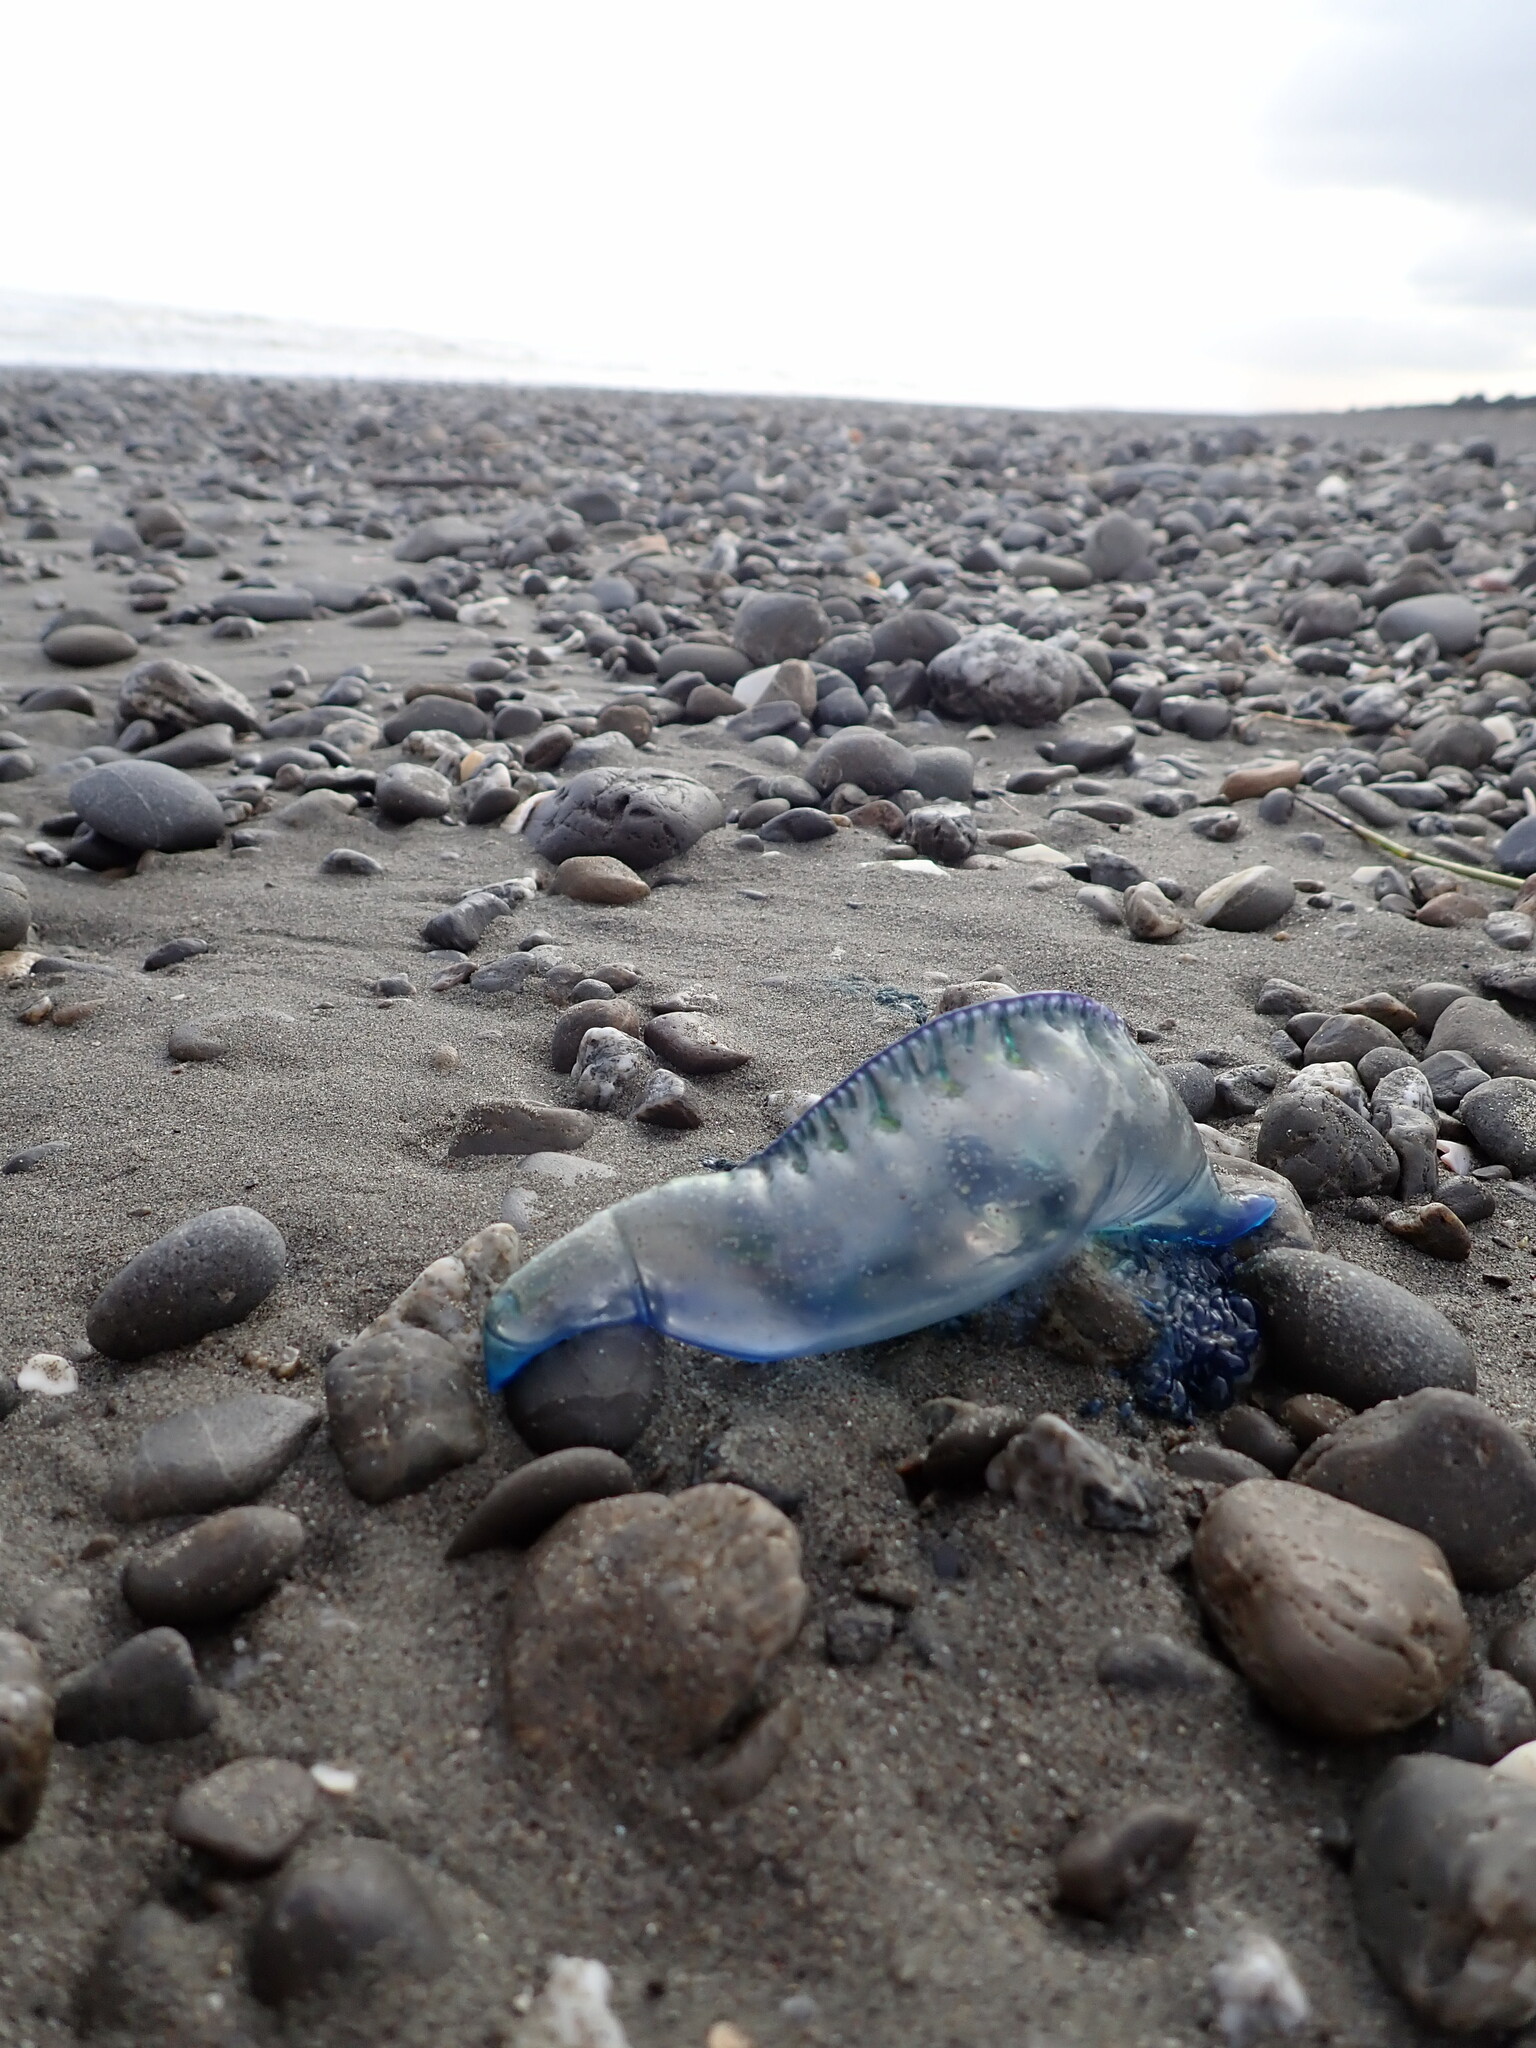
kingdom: Animalia
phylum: Cnidaria
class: Hydrozoa
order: Siphonophorae
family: Physaliidae
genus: Physalia
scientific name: Physalia physalis
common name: Portuguese man-of-war
